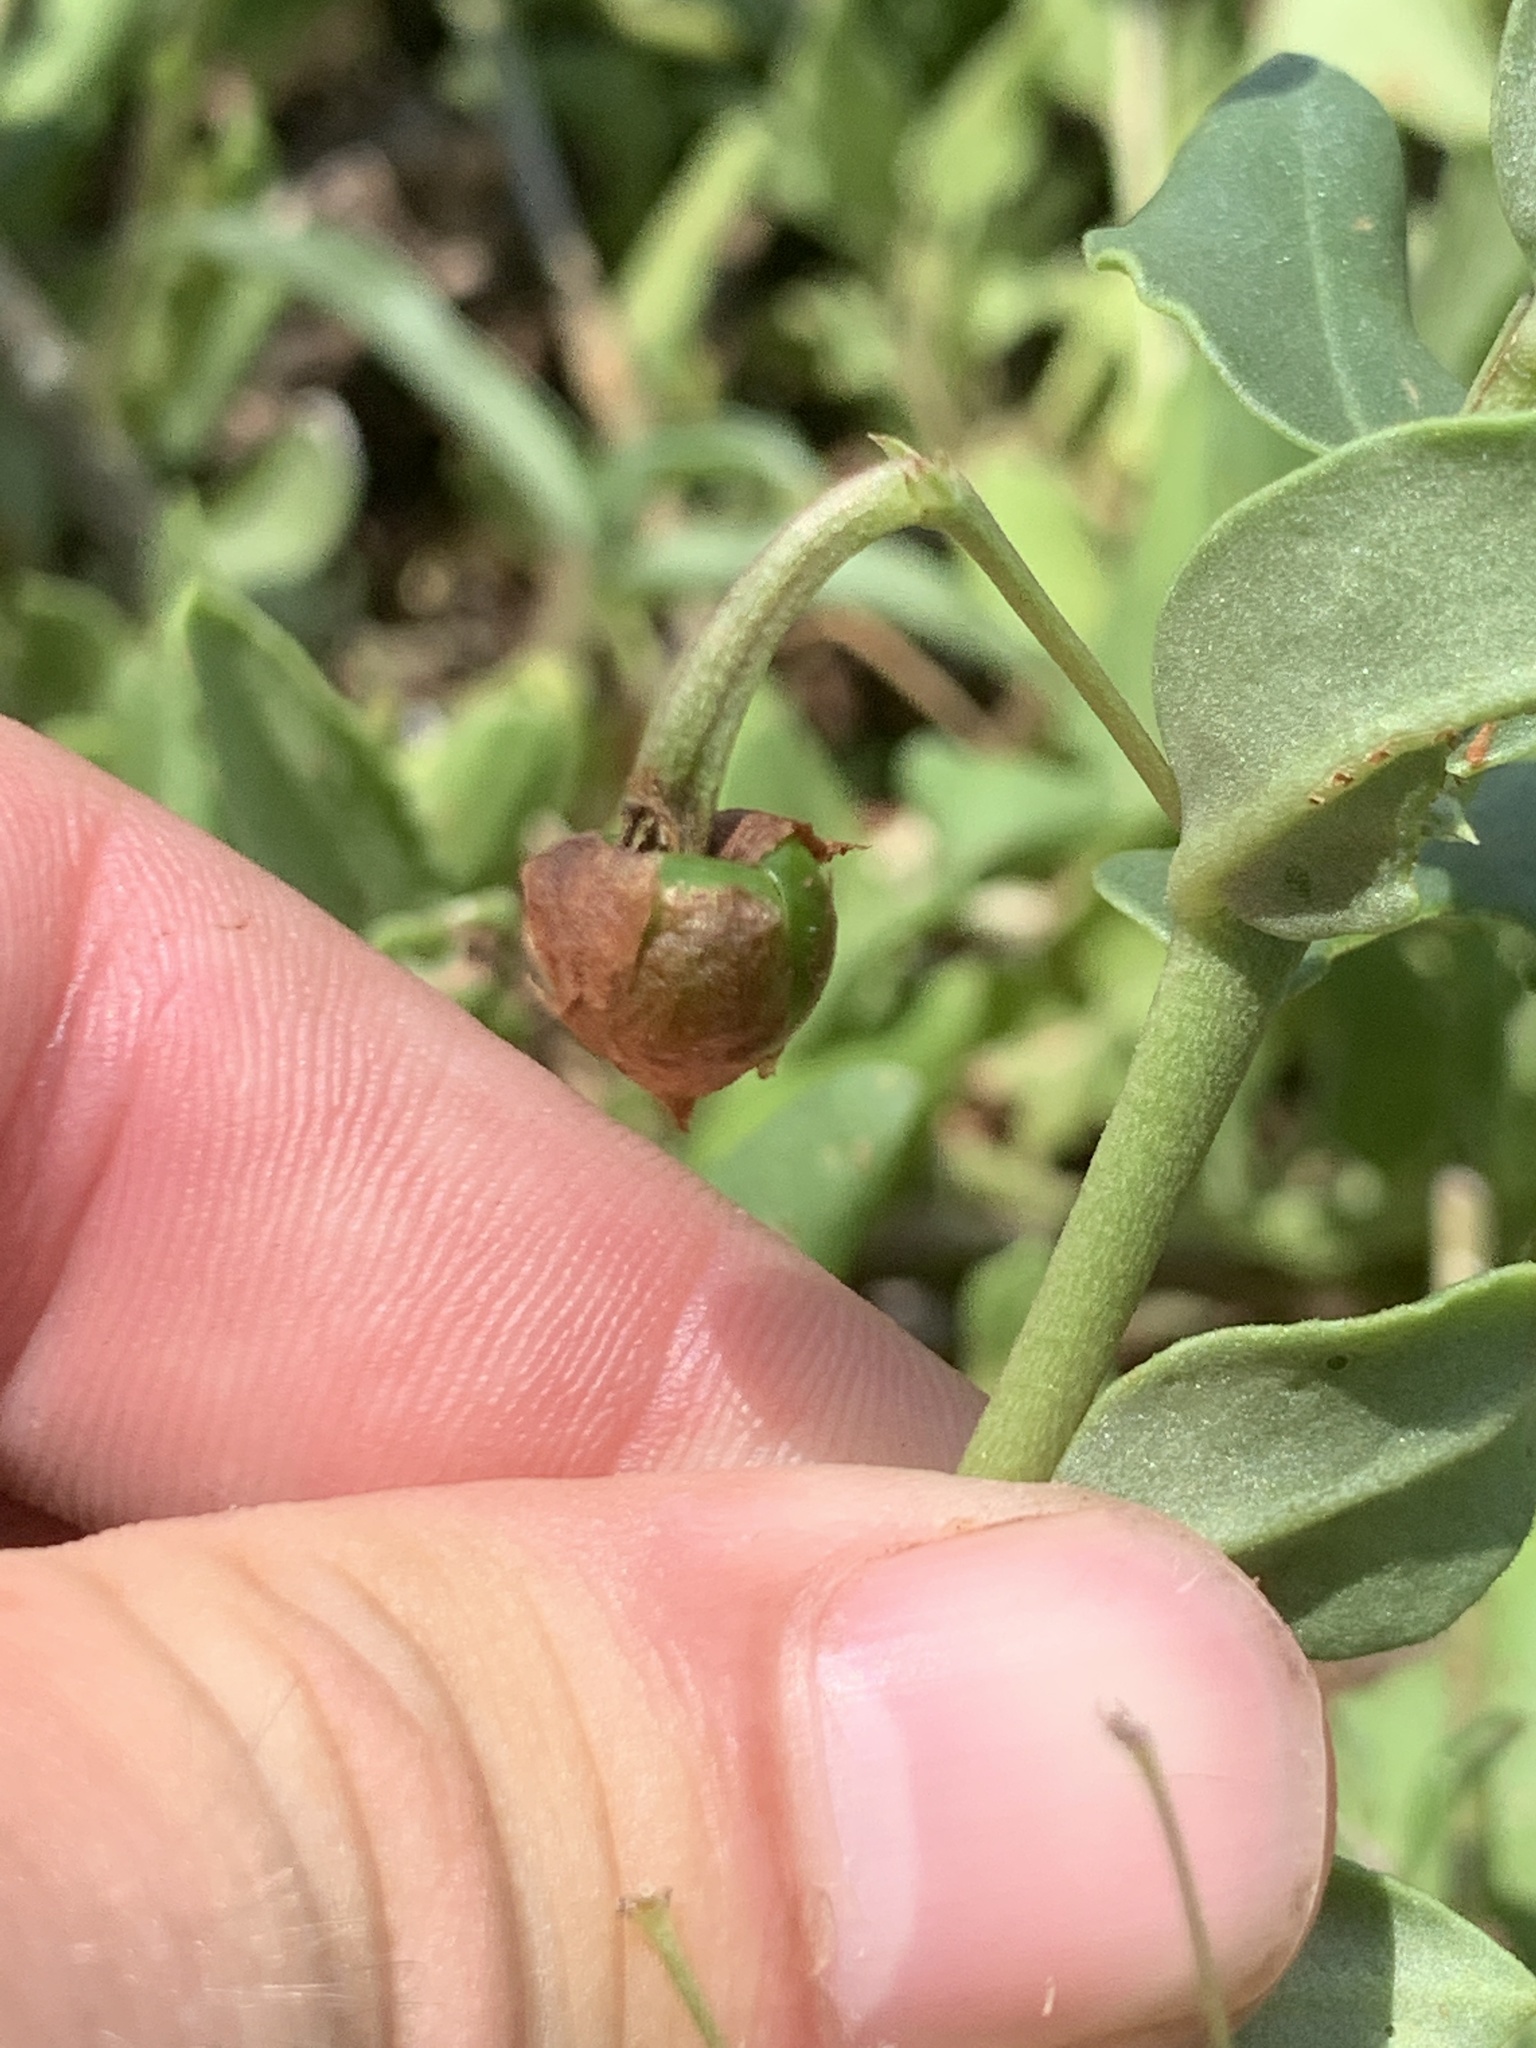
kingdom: Plantae
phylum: Tracheophyta
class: Magnoliopsida
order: Caryophyllales
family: Talinaceae
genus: Talinum
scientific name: Talinum arnotii
